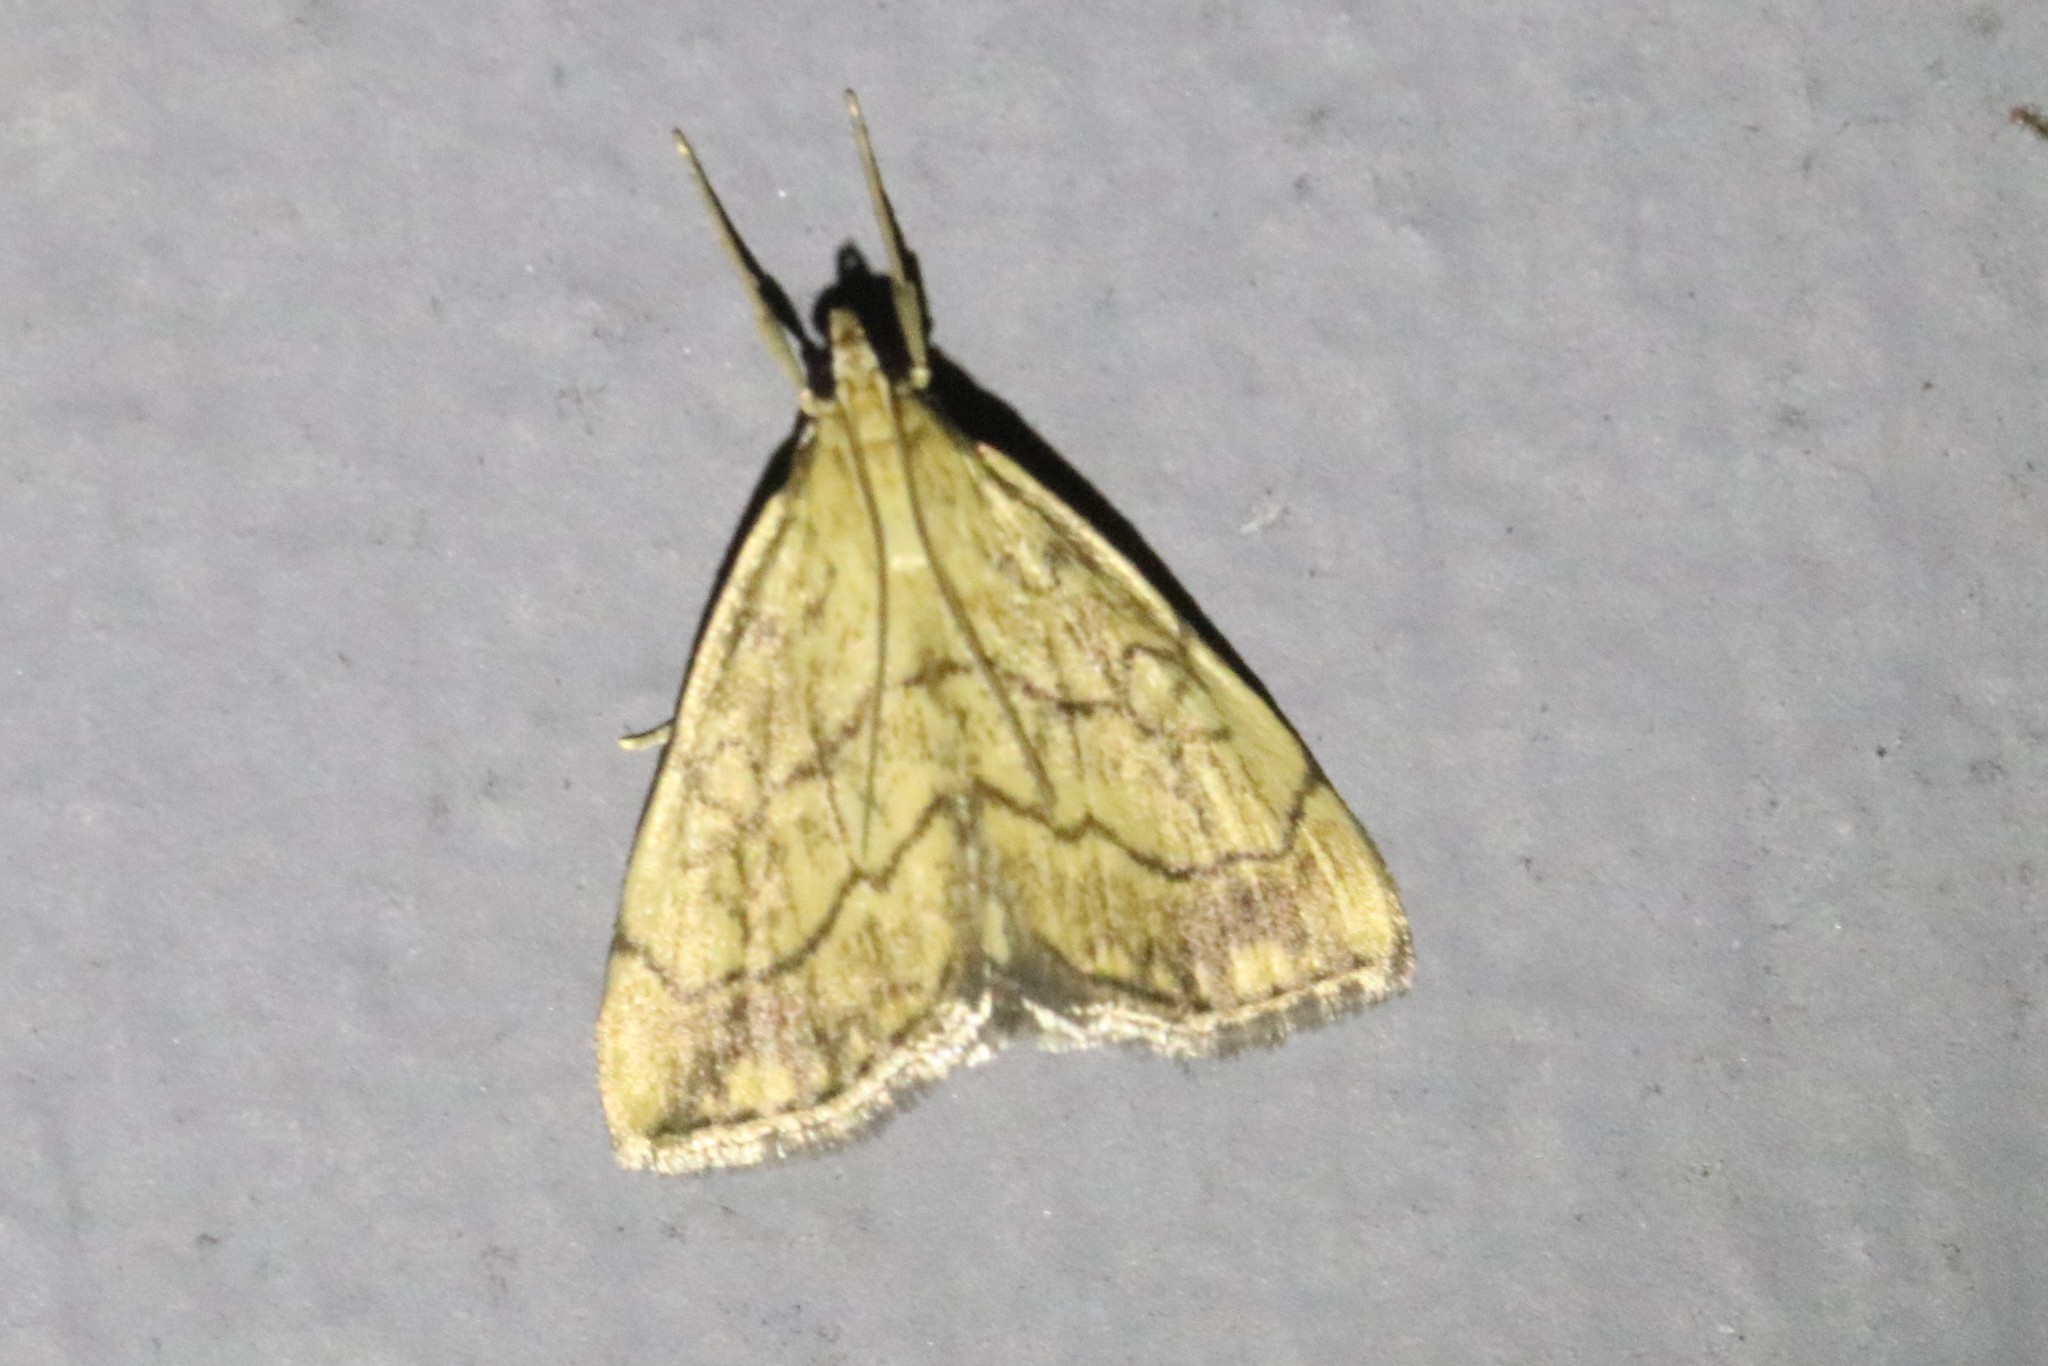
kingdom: Animalia
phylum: Arthropoda
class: Insecta
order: Lepidoptera
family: Crambidae
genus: Evergestis
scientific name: Evergestis pallidata
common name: Chequered pearl
